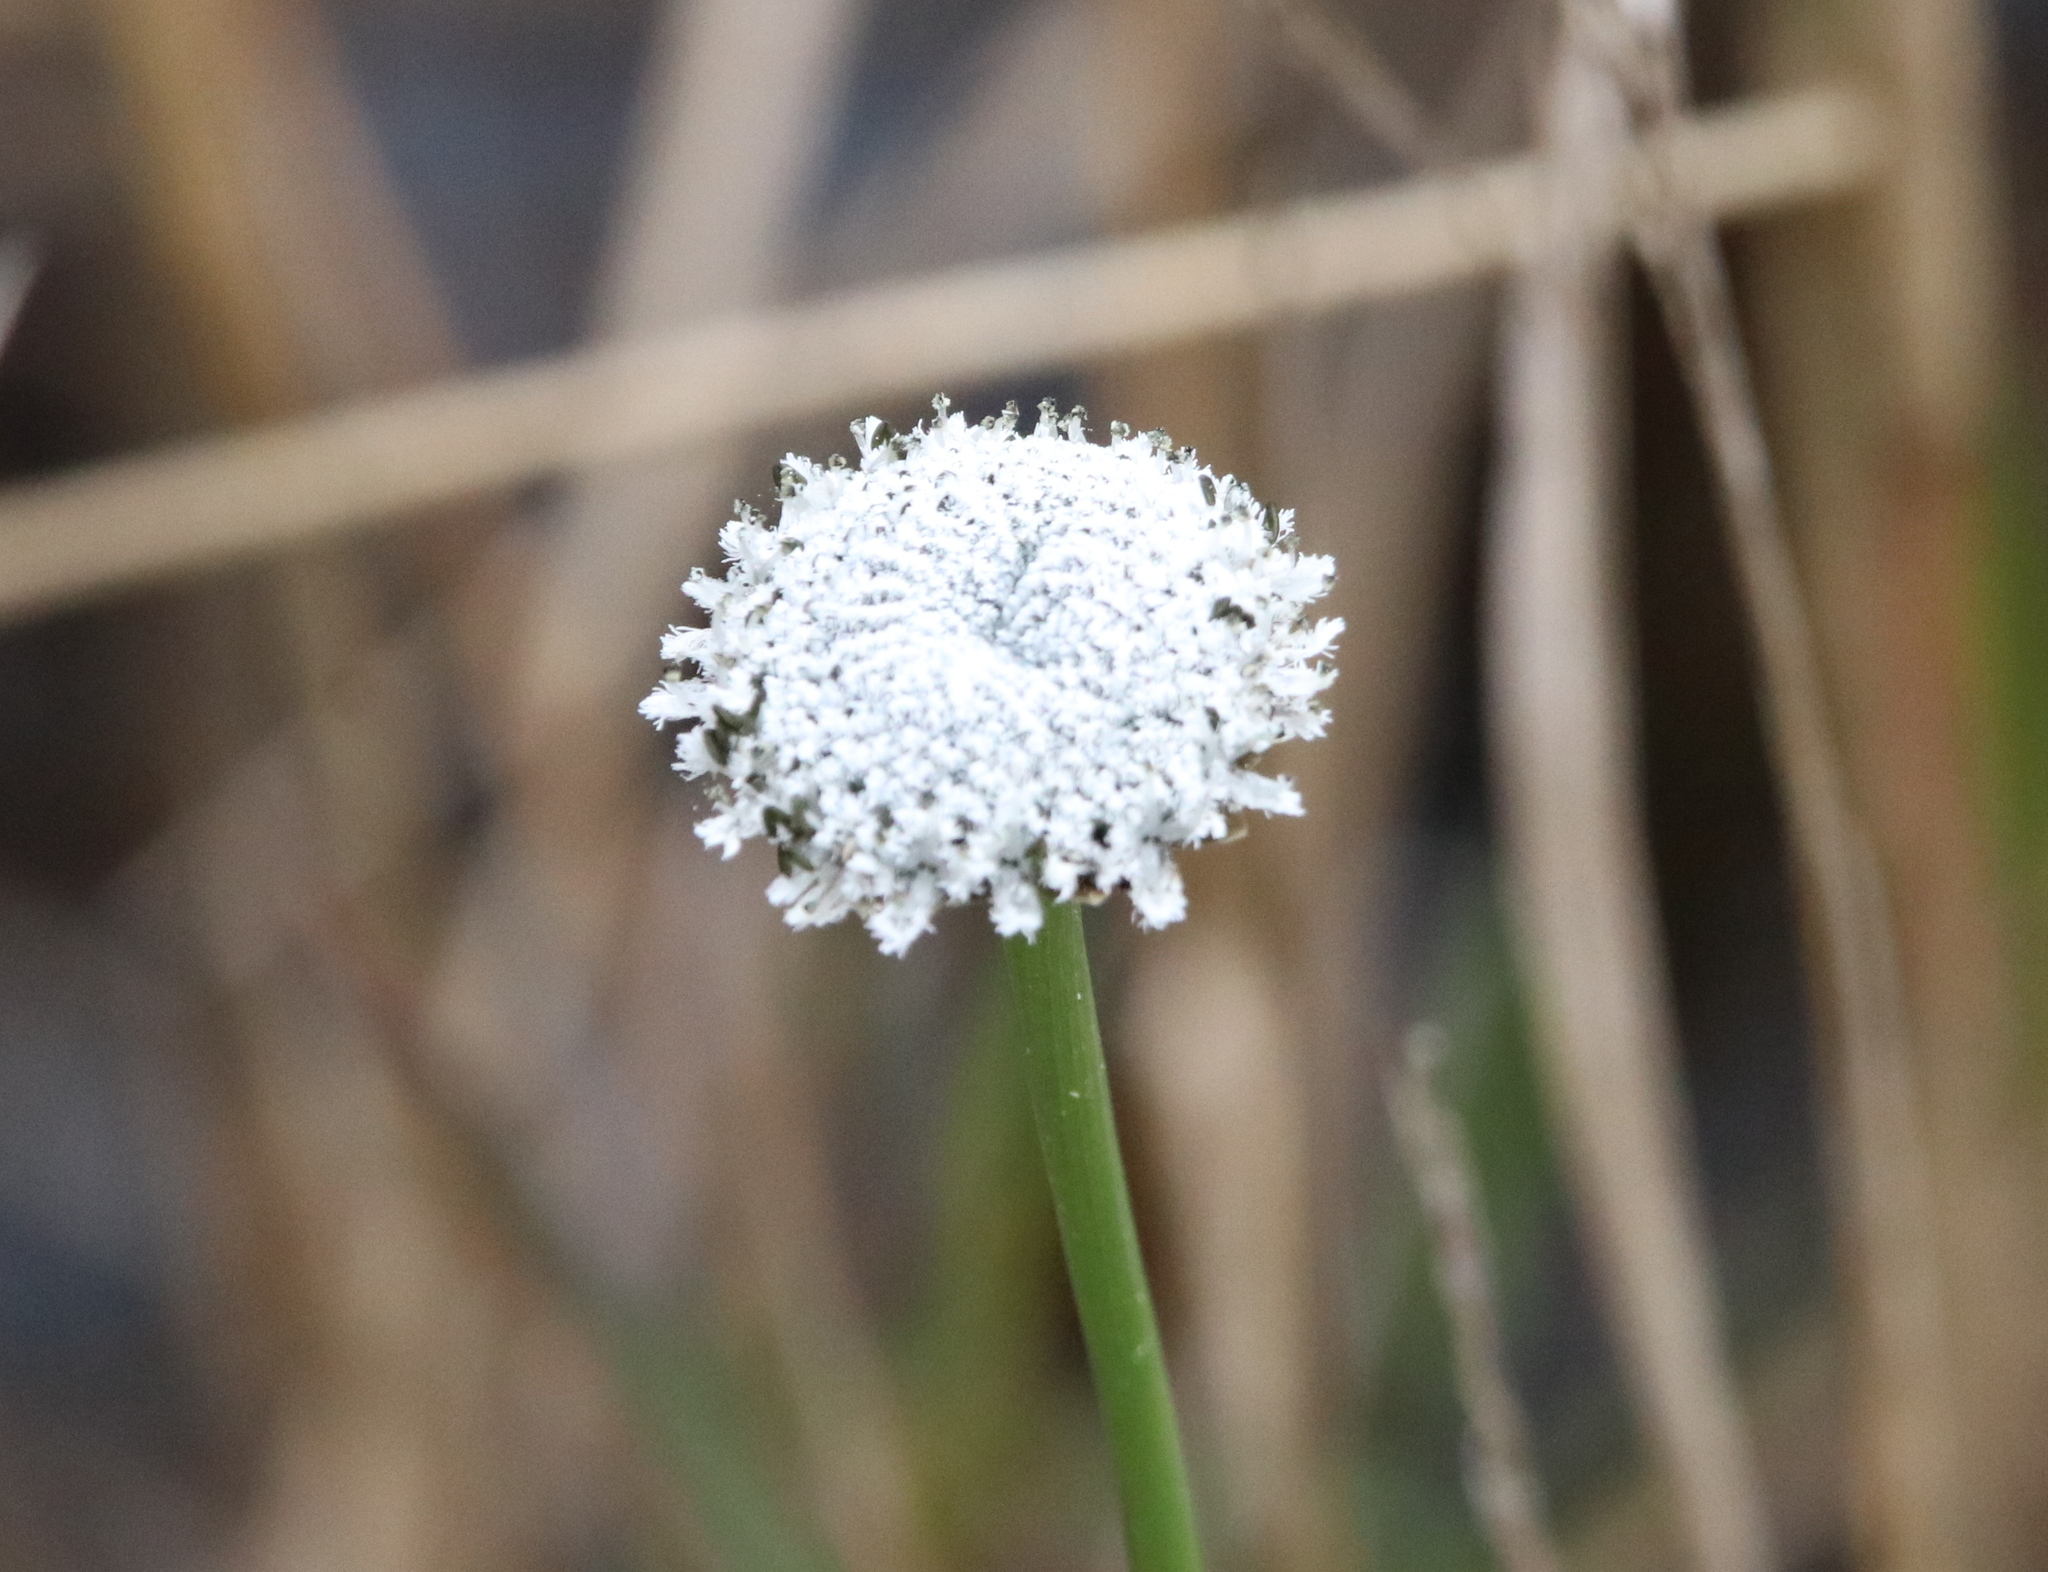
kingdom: Plantae
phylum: Tracheophyta
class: Liliopsida
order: Poales
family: Eriocaulaceae
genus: Eriocaulon
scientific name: Eriocaulon compressum
